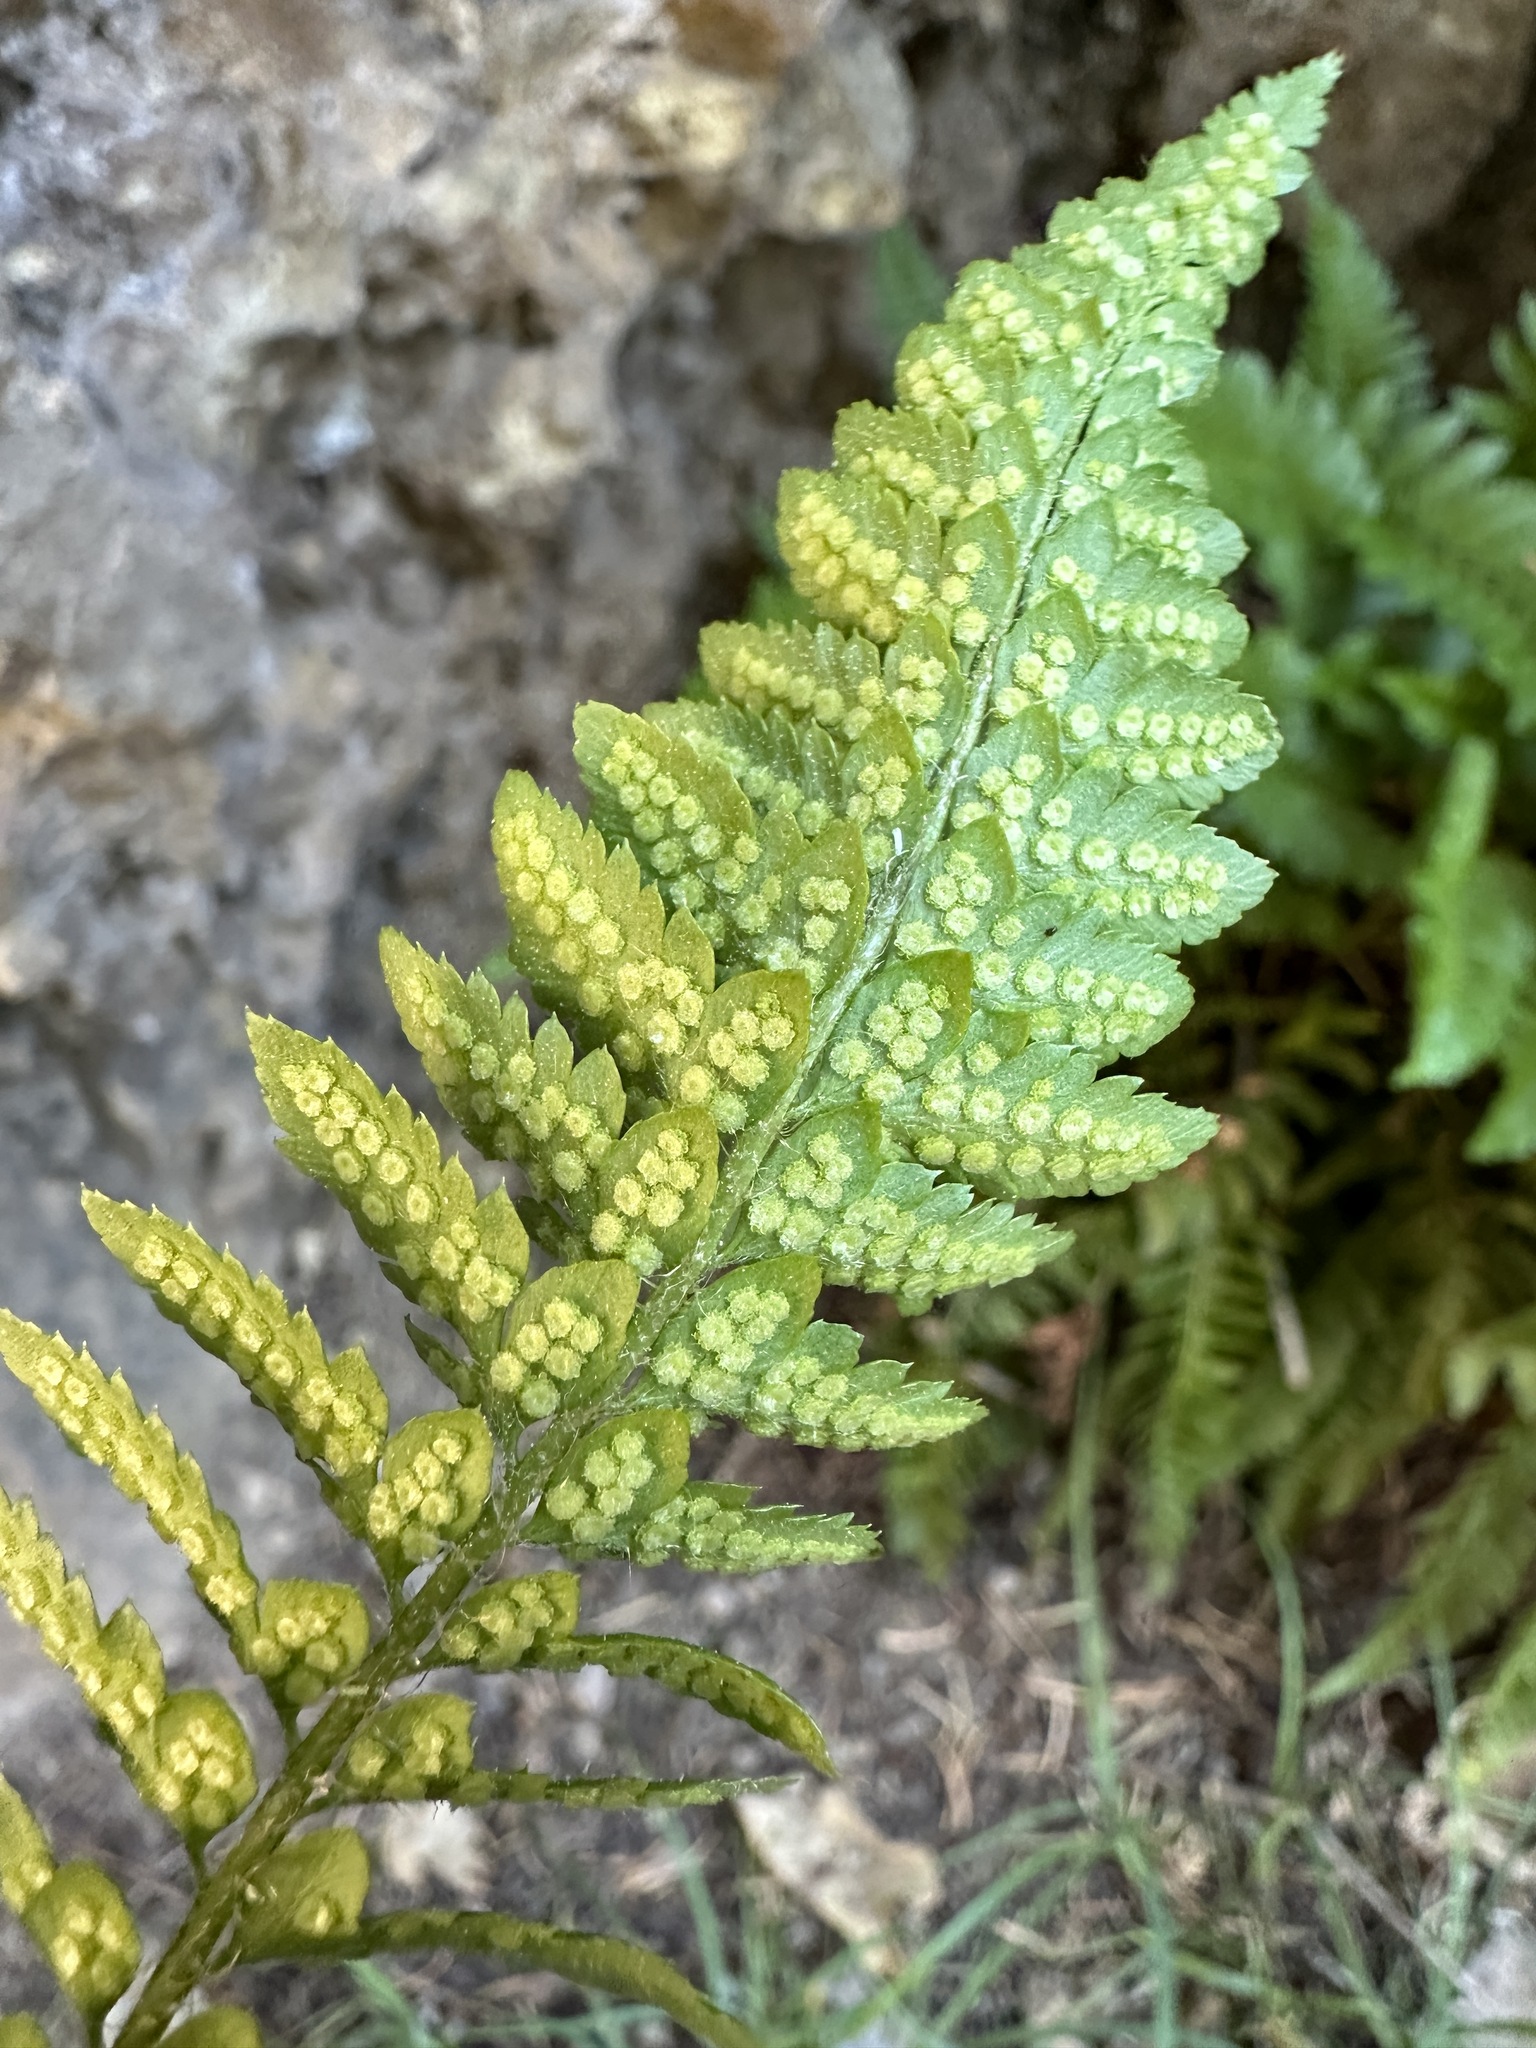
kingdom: Plantae
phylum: Tracheophyta
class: Polypodiopsida
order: Polypodiales
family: Dryopteridaceae
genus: Polystichum
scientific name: Polystichum scopulinum
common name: Eaton's shield fern
